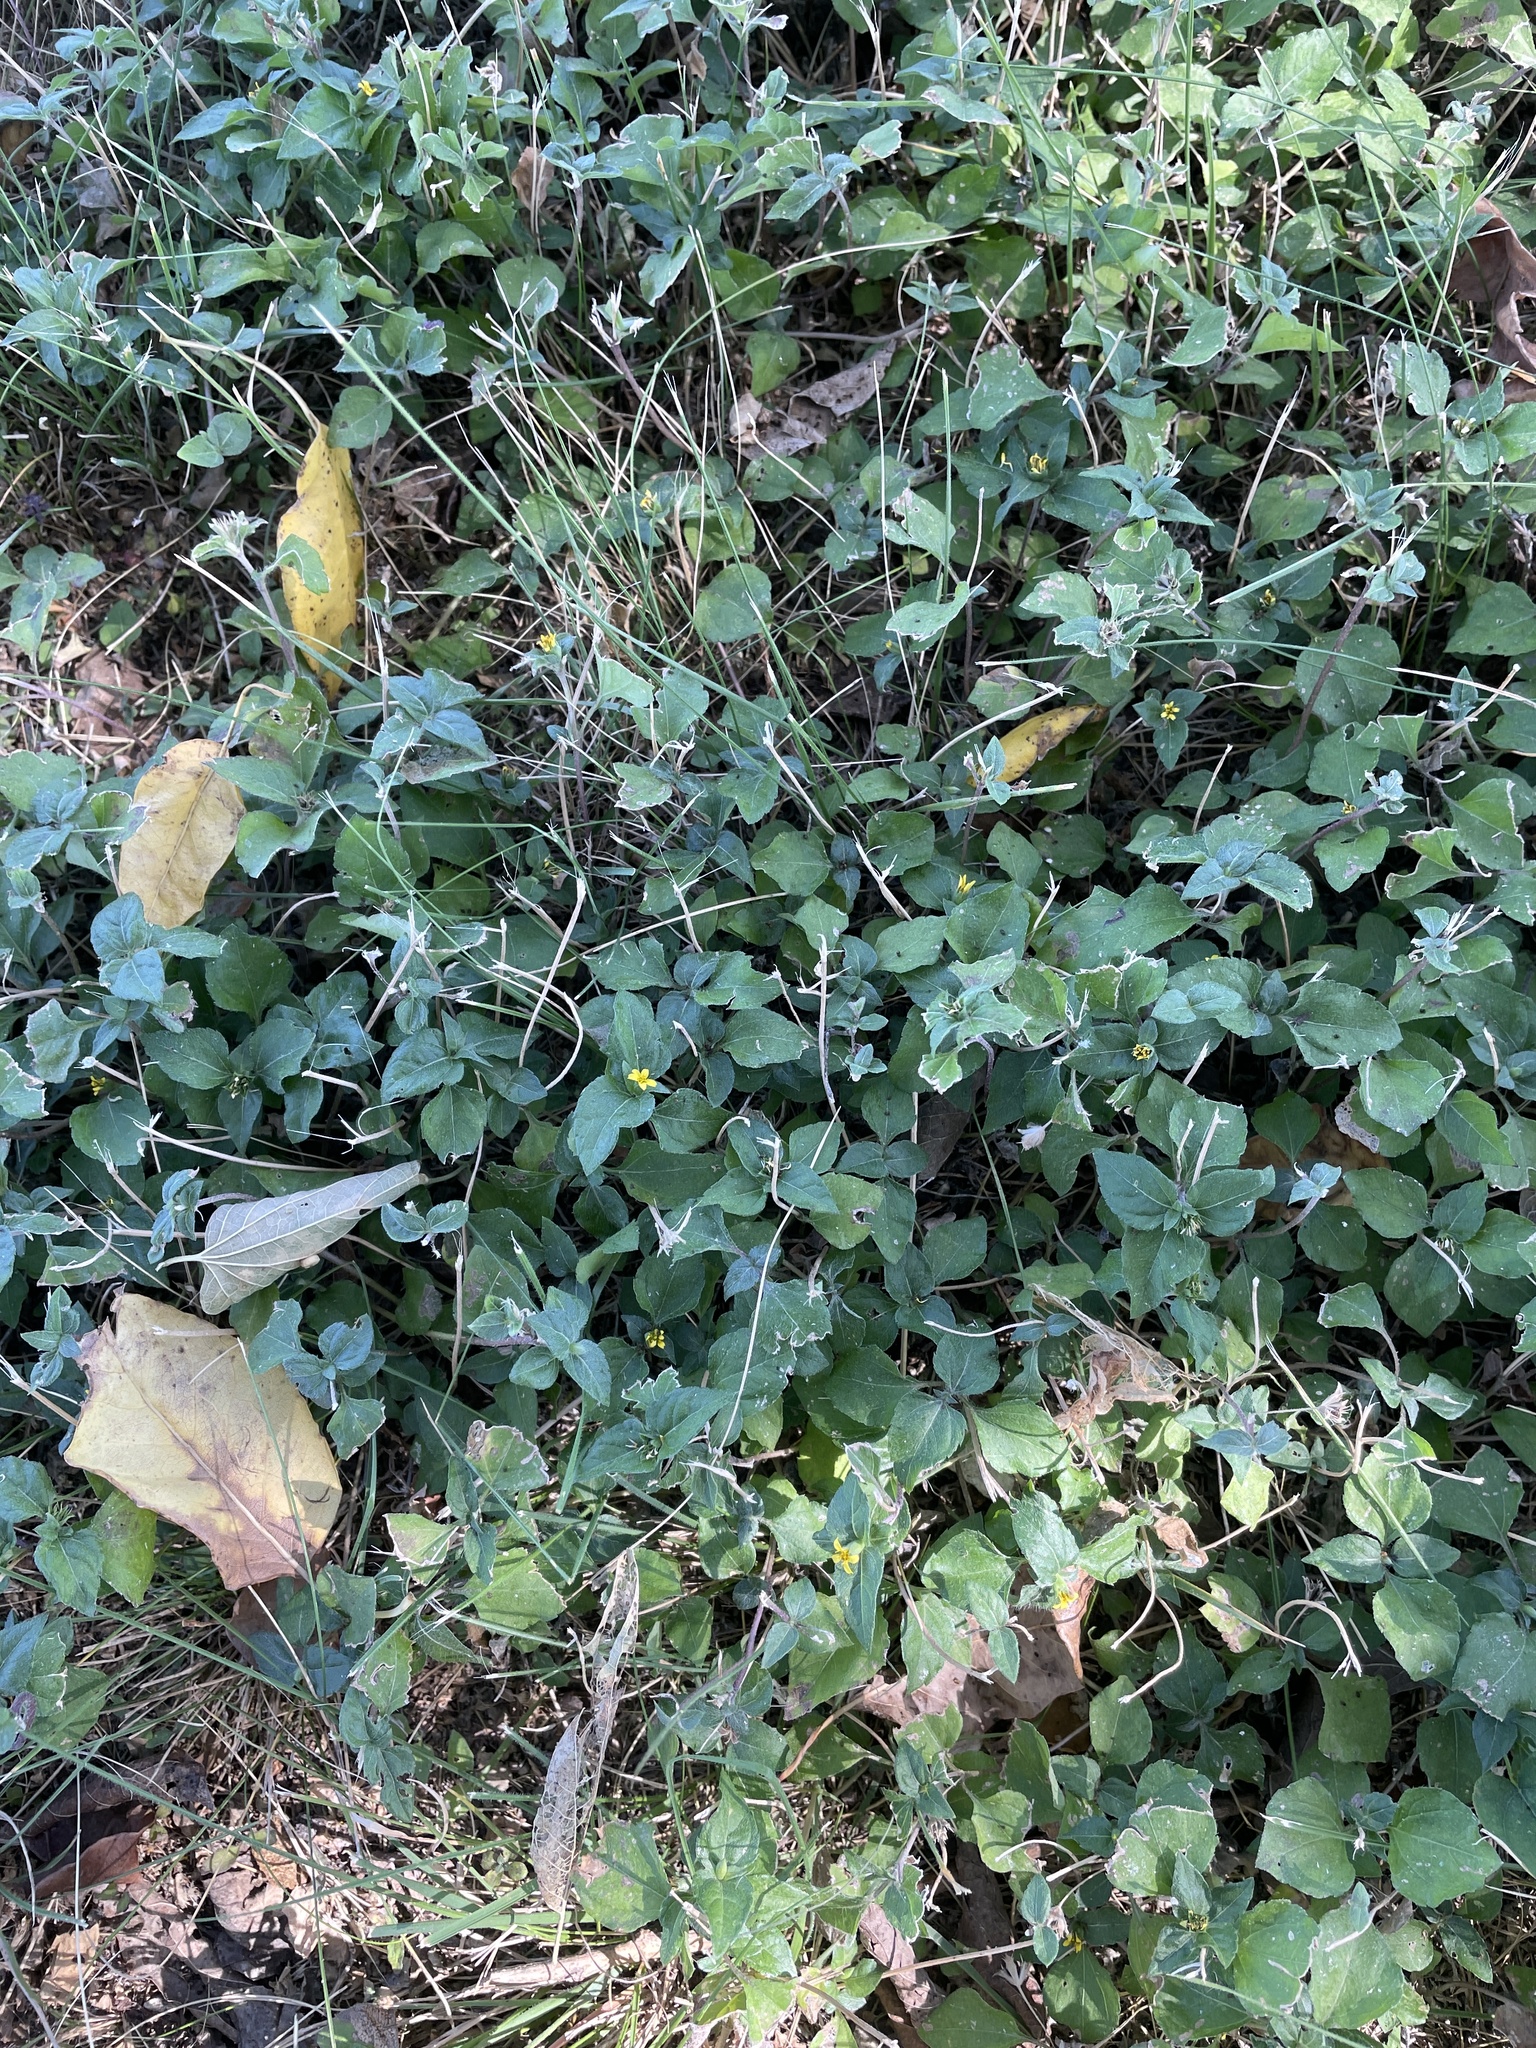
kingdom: Plantae
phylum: Tracheophyta
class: Magnoliopsida
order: Asterales
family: Asteraceae
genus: Calyptocarpus
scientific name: Calyptocarpus vialis
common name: Straggler daisy
